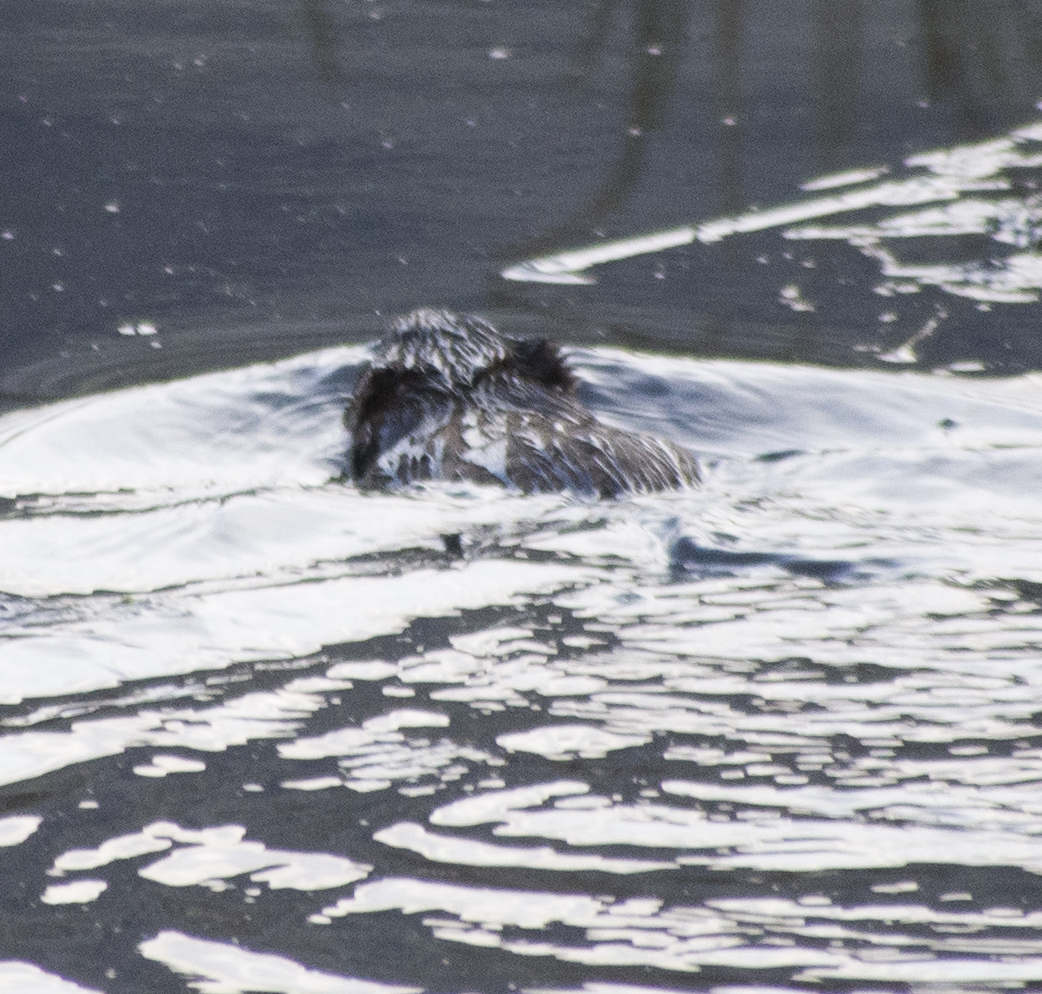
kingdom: Animalia
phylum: Chordata
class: Mammalia
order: Rodentia
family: Cricetidae
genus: Ondatra
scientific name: Ondatra zibethicus
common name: Muskrat
